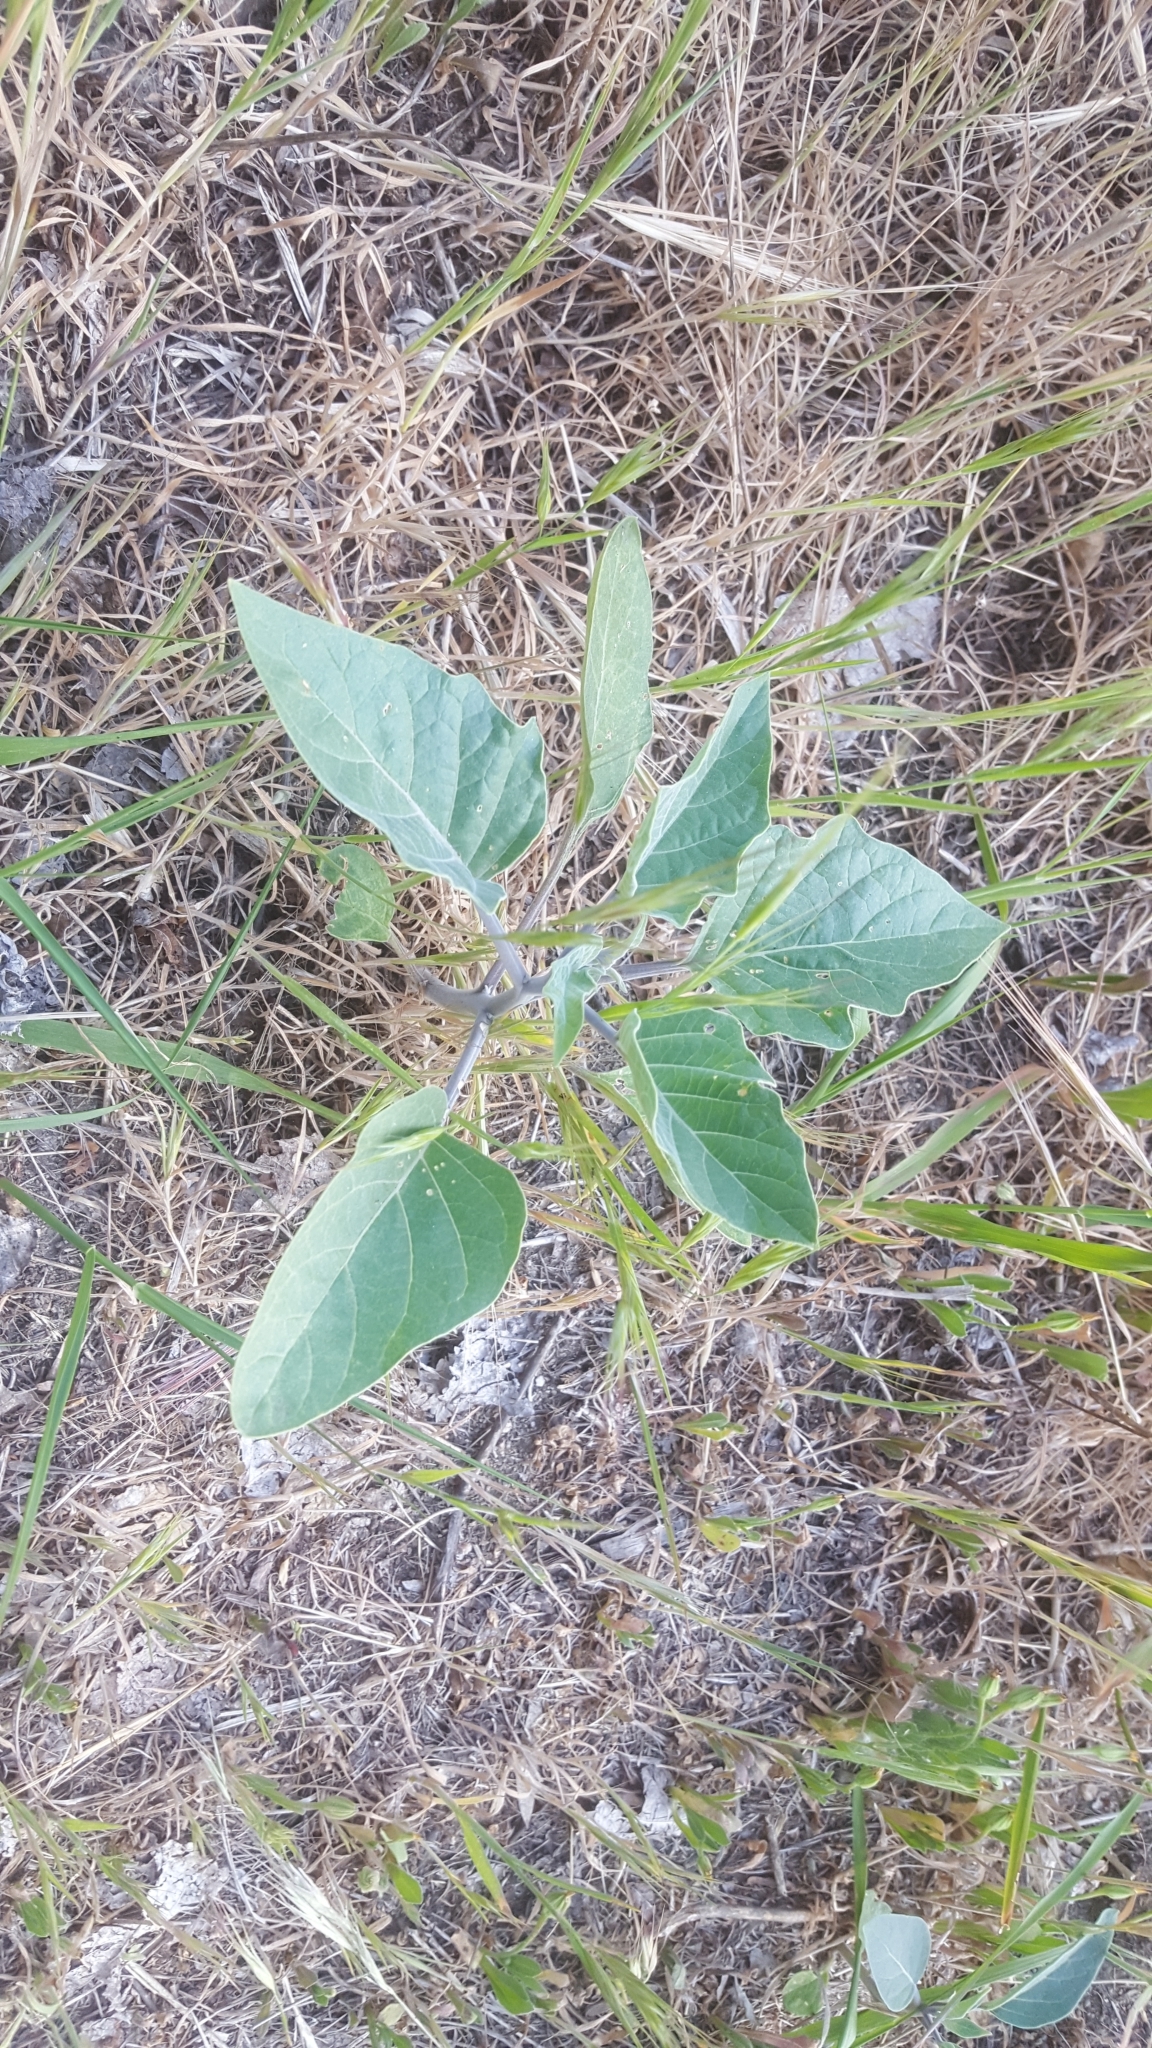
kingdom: Plantae
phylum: Tracheophyta
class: Magnoliopsida
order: Solanales
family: Solanaceae
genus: Datura
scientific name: Datura wrightii
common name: Sacred thorn-apple
